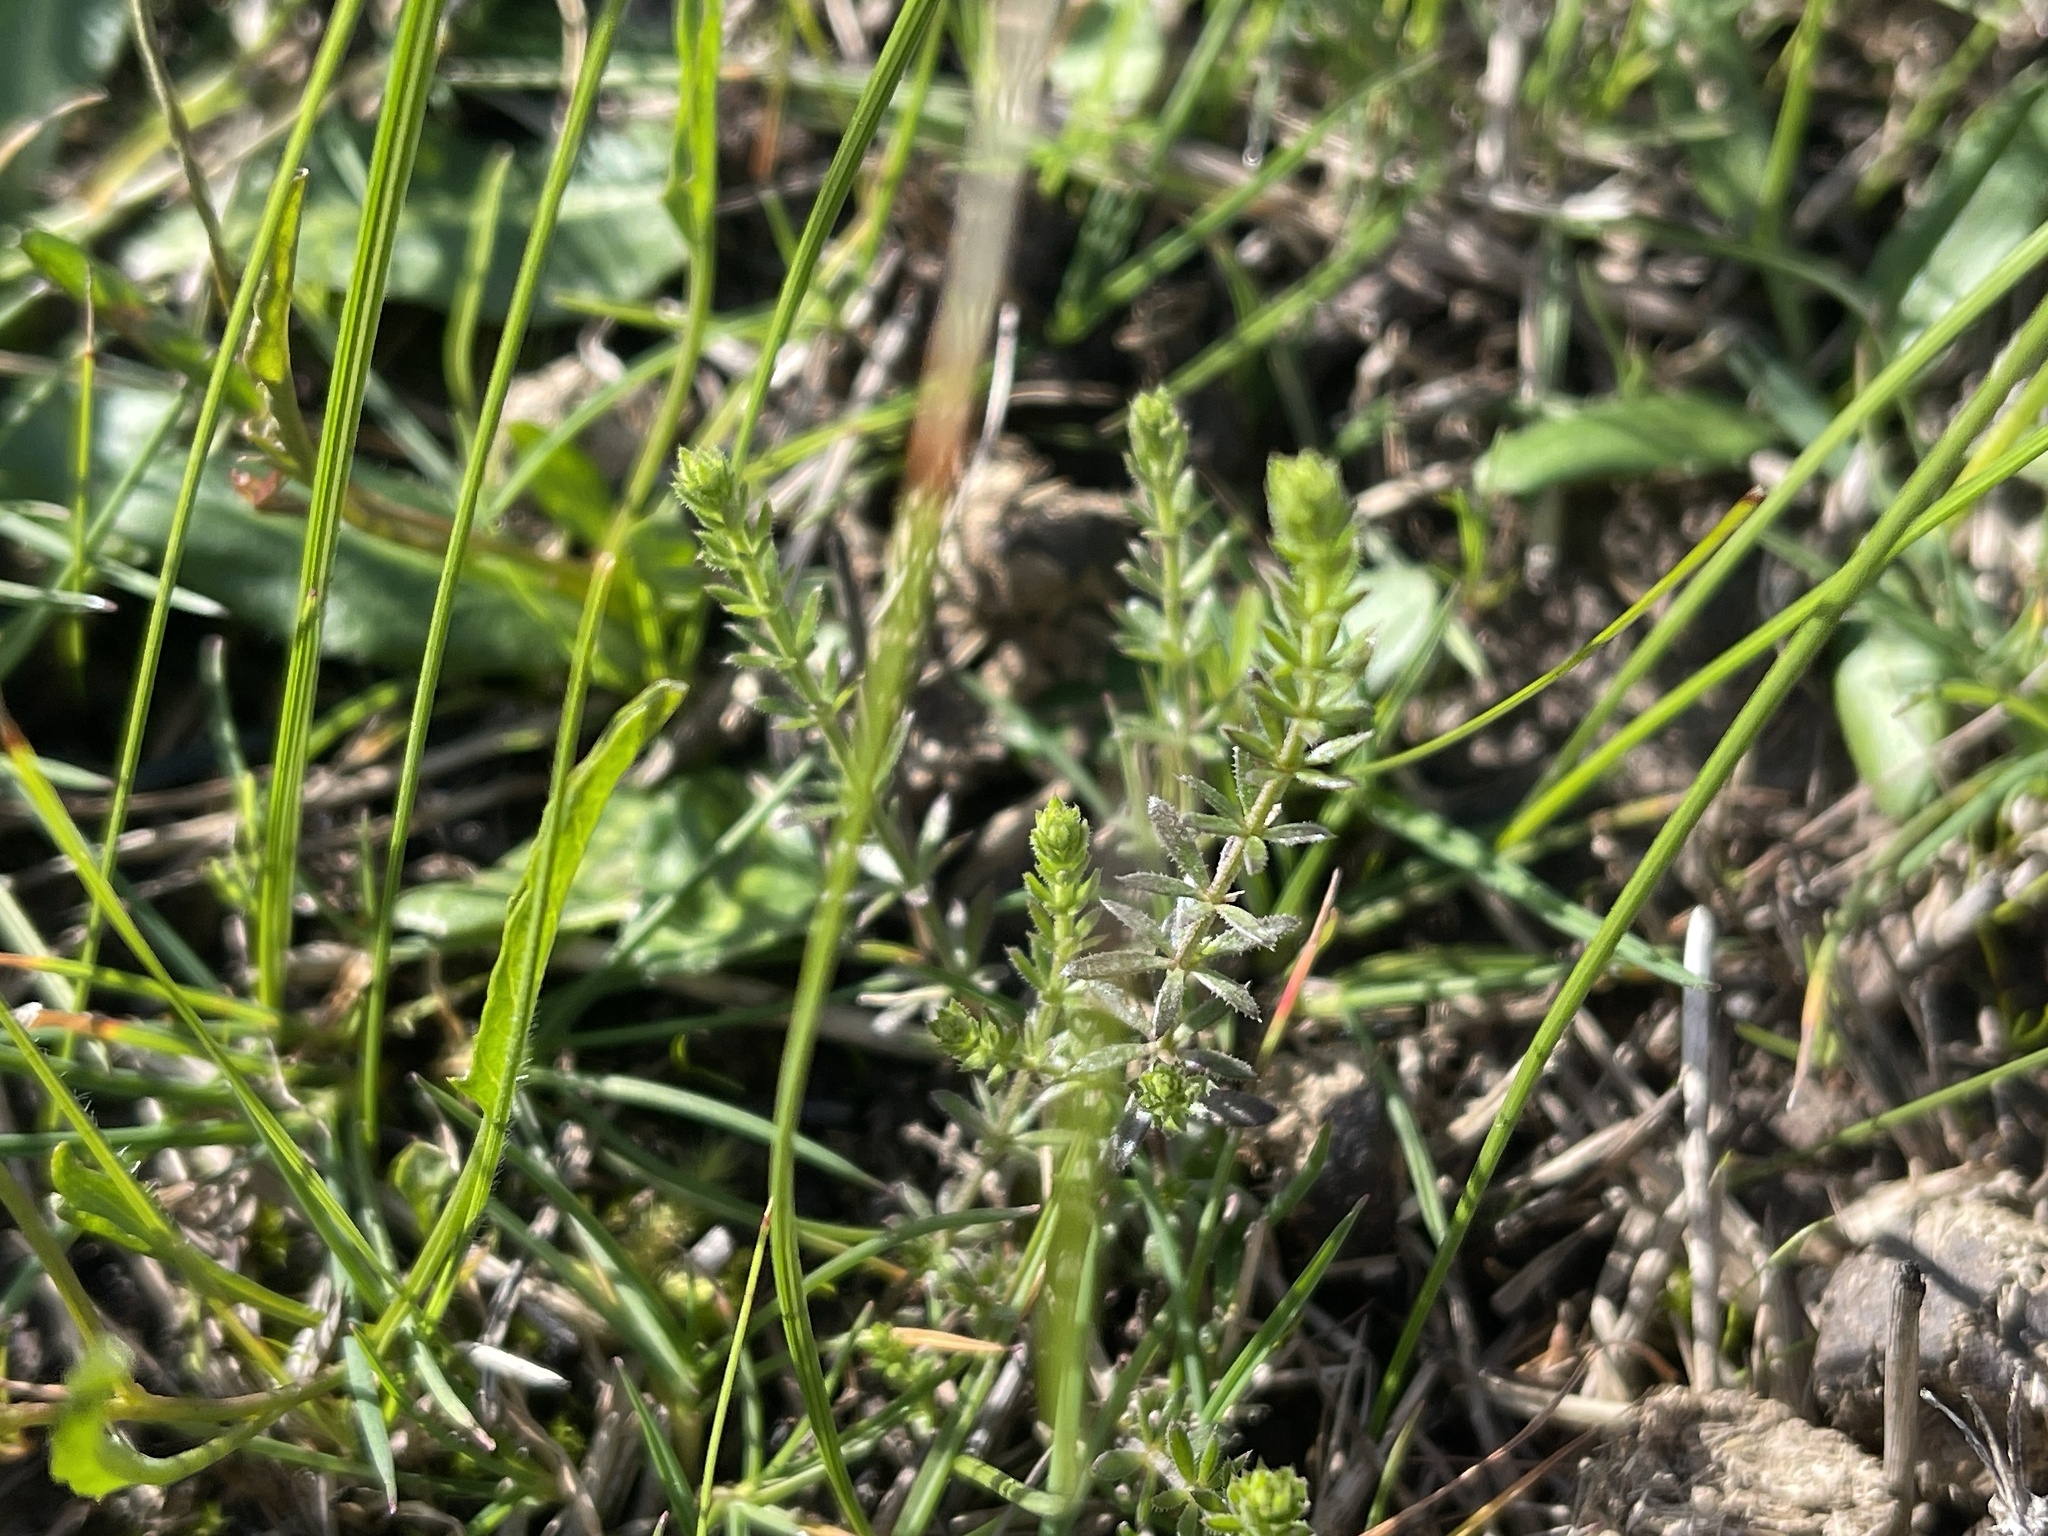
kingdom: Plantae
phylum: Tracheophyta
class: Magnoliopsida
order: Gentianales
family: Rubiaceae
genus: Asperula
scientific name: Asperula conferta
